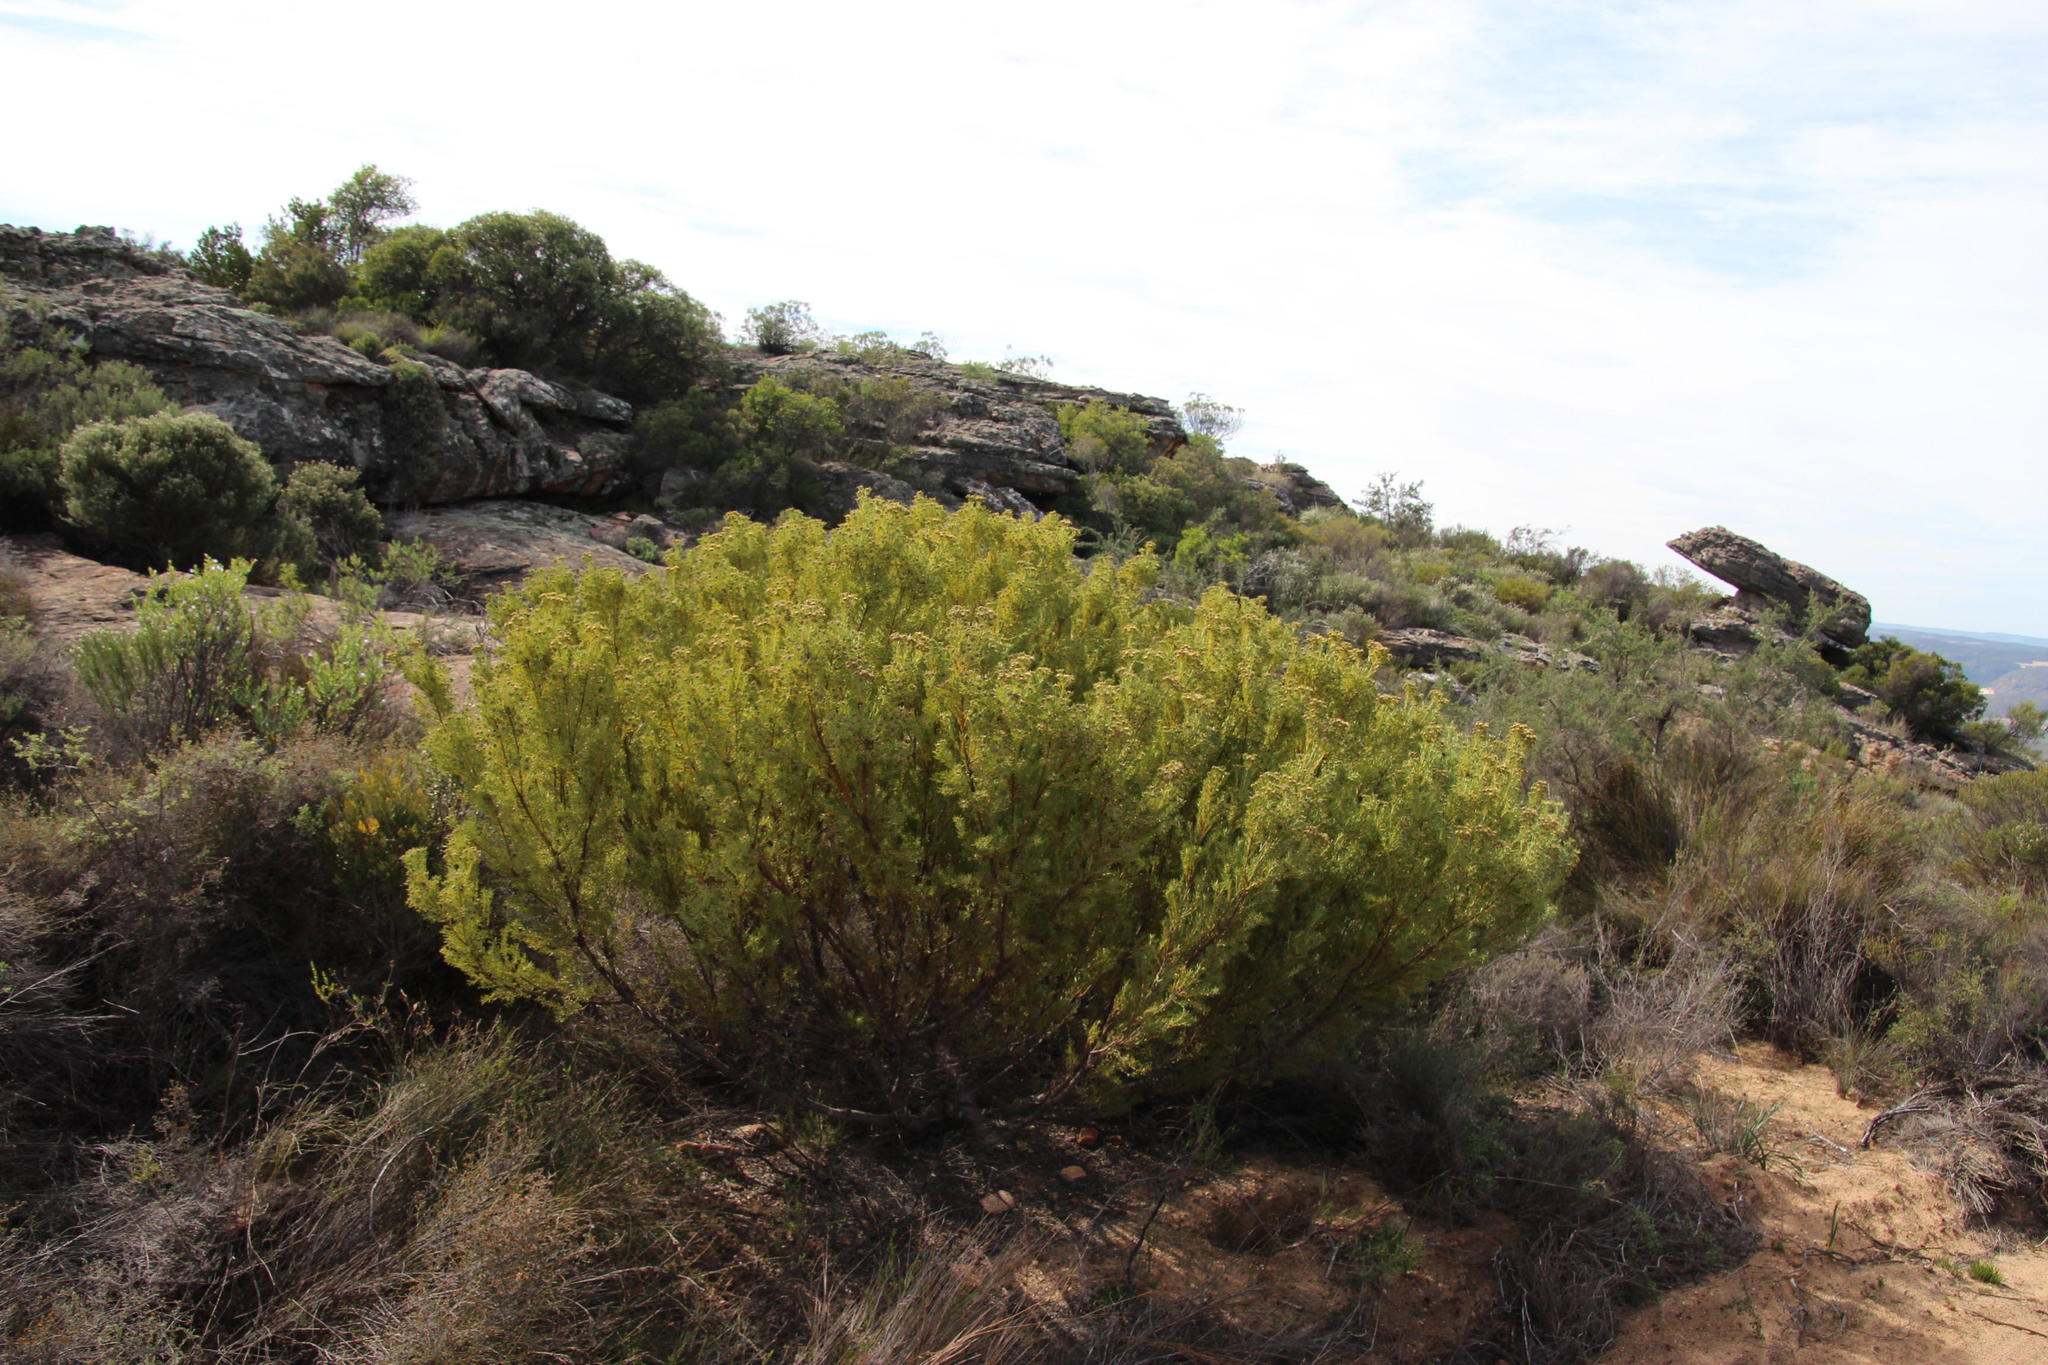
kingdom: Plantae
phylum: Tracheophyta
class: Magnoliopsida
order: Proteales
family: Proteaceae
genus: Leucadendron
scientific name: Leucadendron pubescens
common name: Grey conebush
